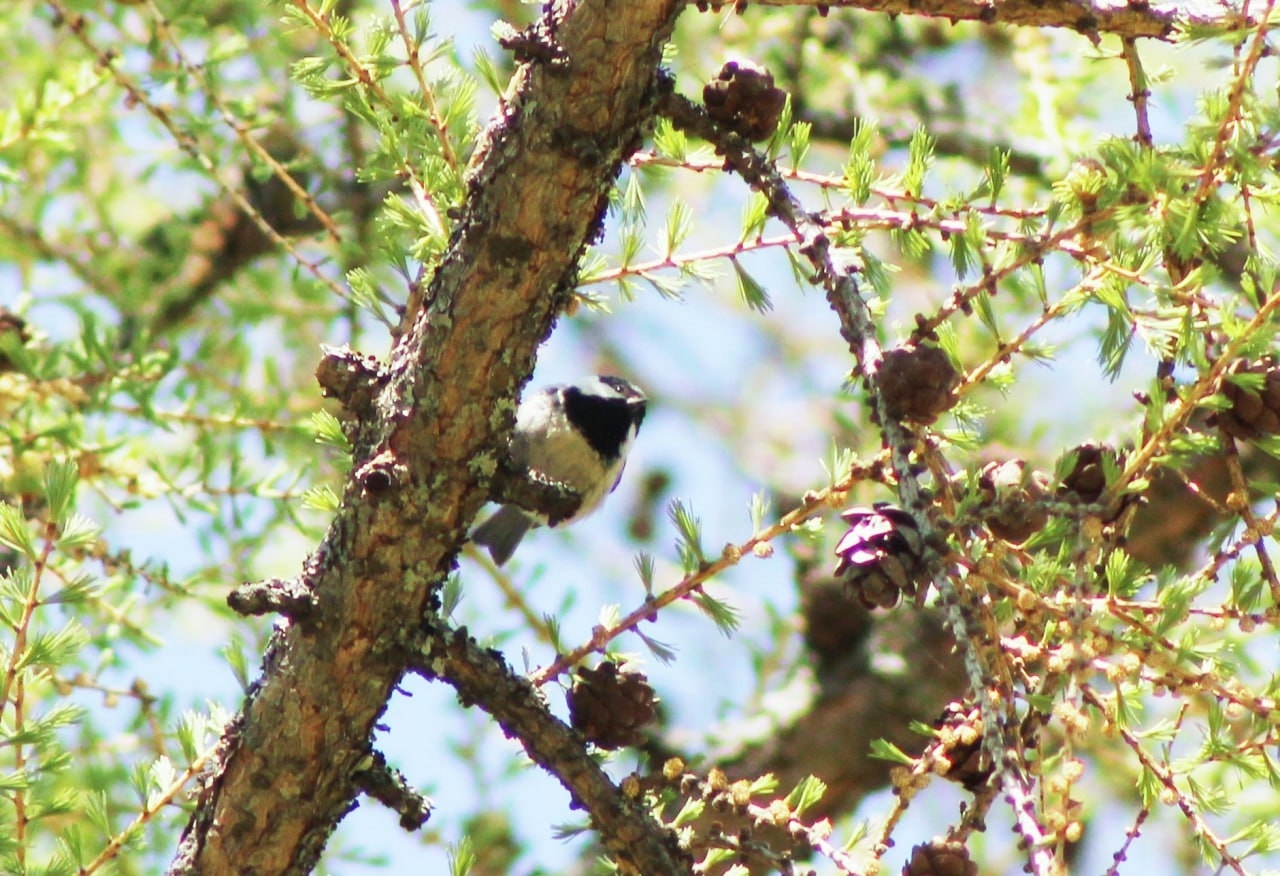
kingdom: Animalia
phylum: Chordata
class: Aves
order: Passeriformes
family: Paridae
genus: Periparus
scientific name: Periparus ater
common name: Coal tit
